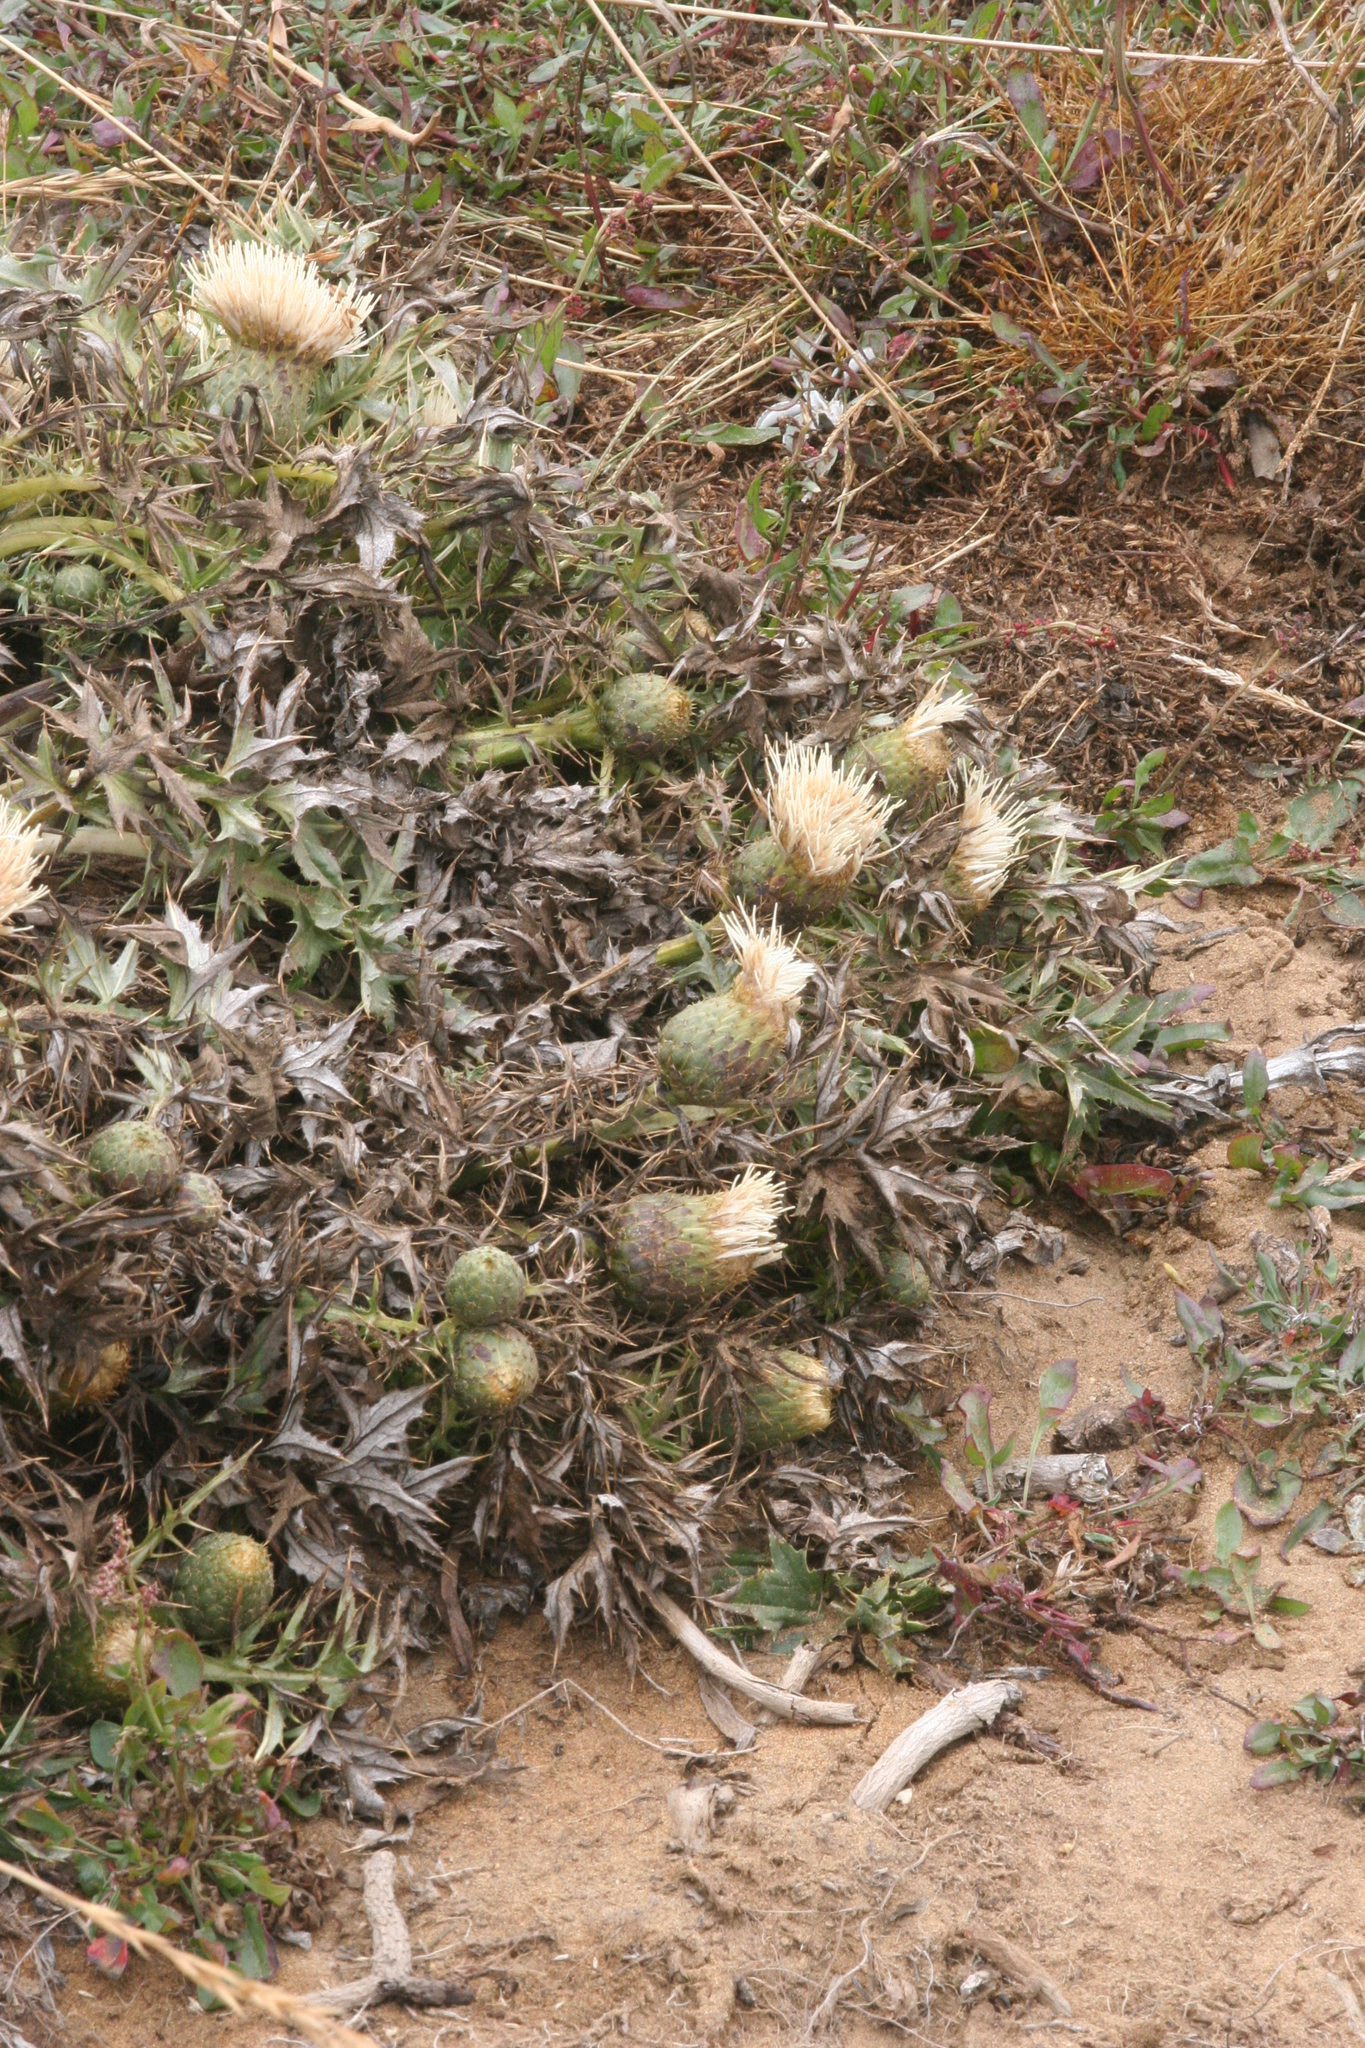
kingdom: Plantae
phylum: Tracheophyta
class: Magnoliopsida
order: Asterales
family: Asteraceae
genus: Cirsium
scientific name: Cirsium quercetorum
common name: Alameda county thistle
